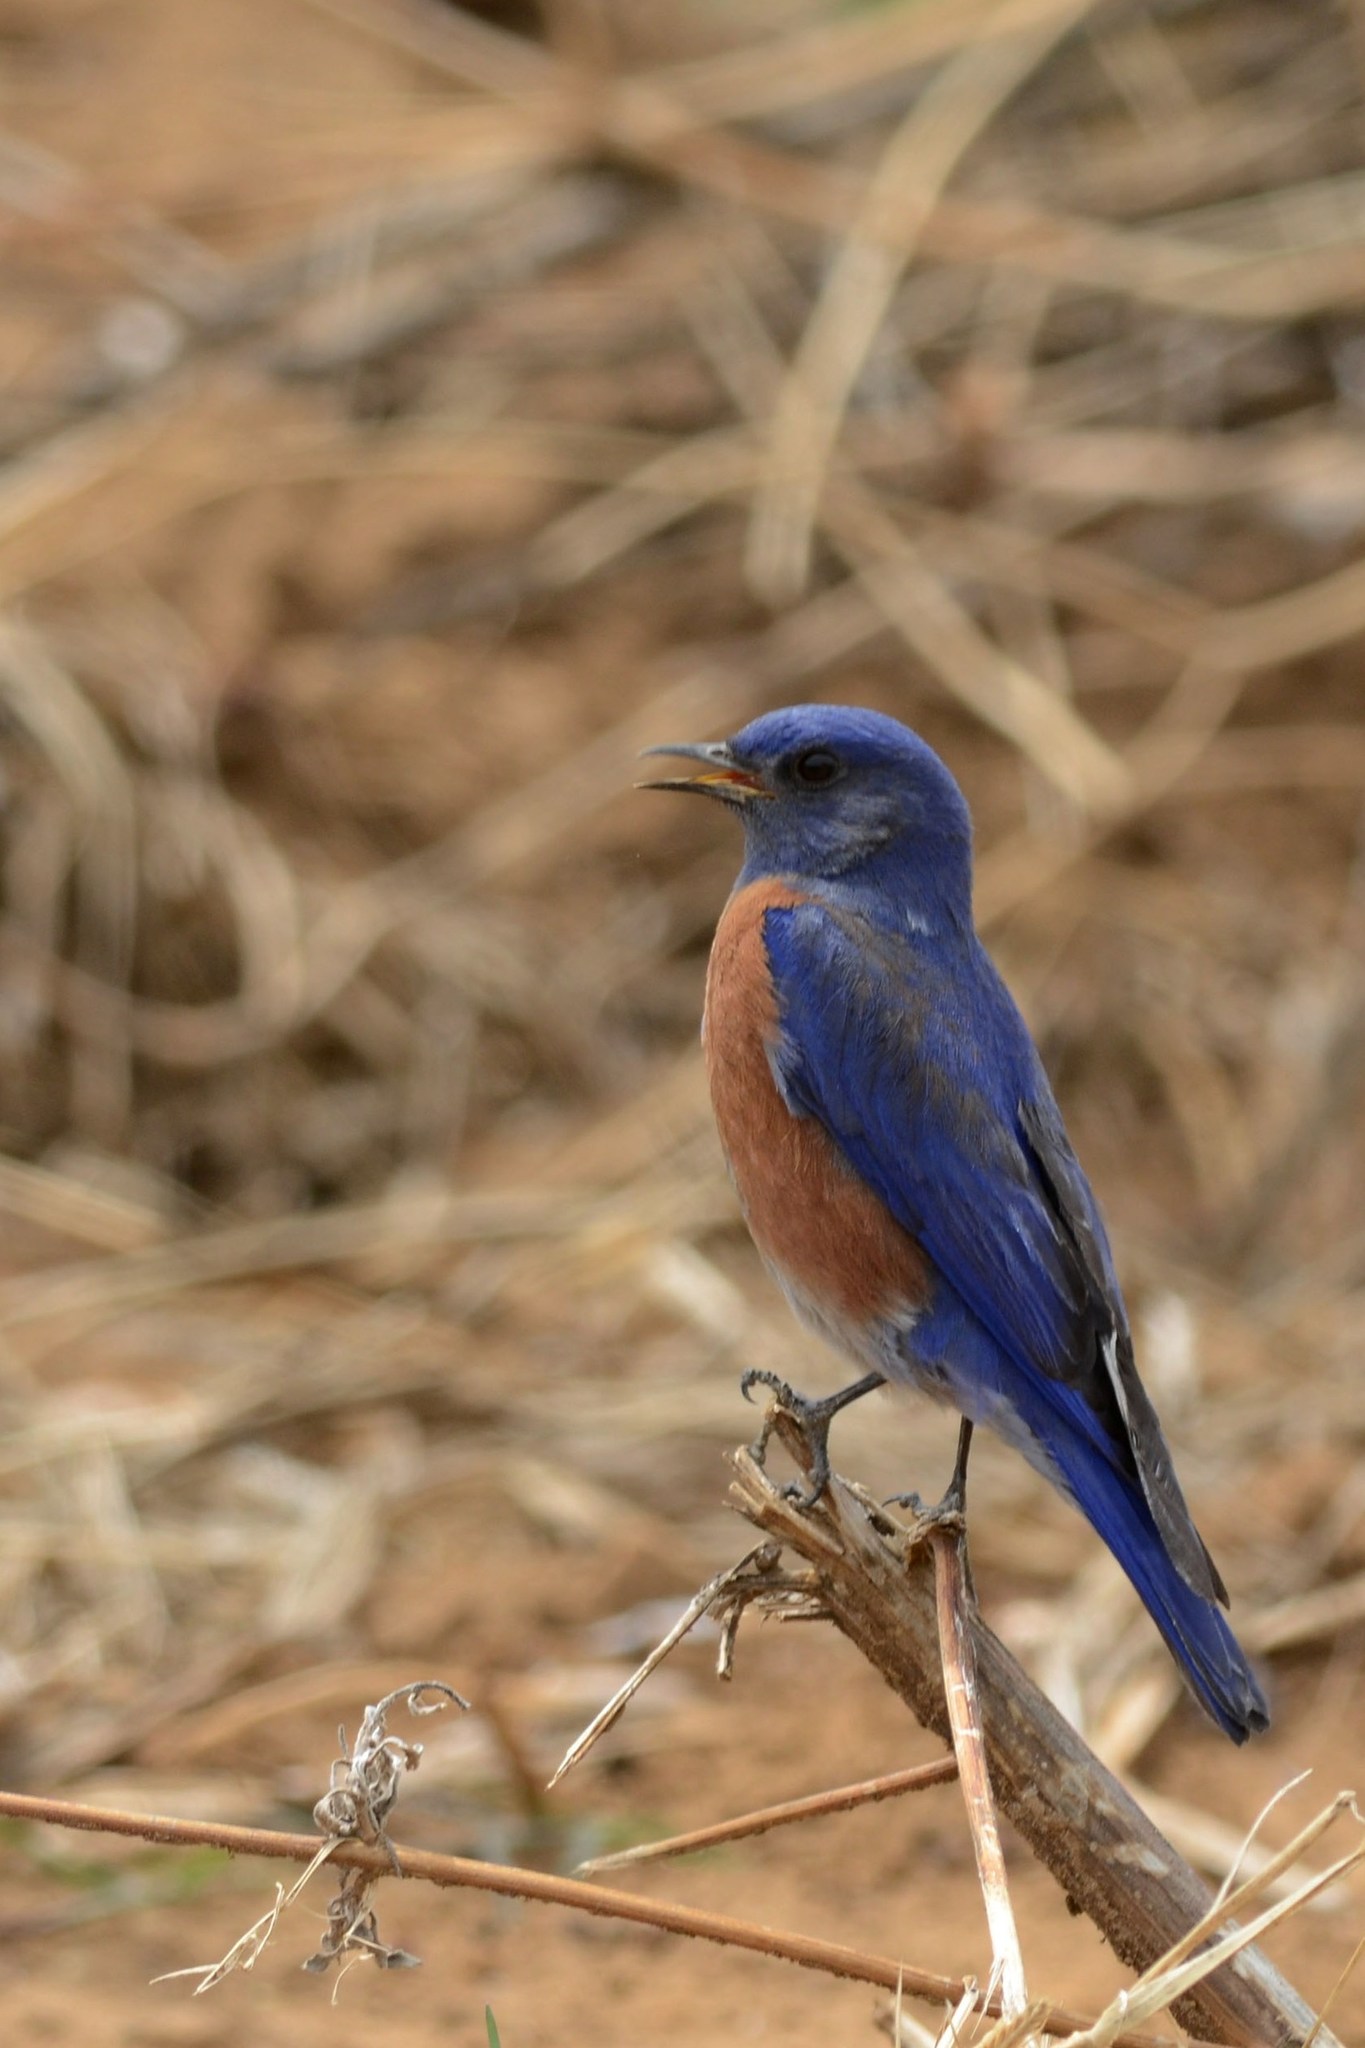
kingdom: Animalia
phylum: Chordata
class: Aves
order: Passeriformes
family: Turdidae
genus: Sialia
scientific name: Sialia mexicana
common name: Western bluebird
